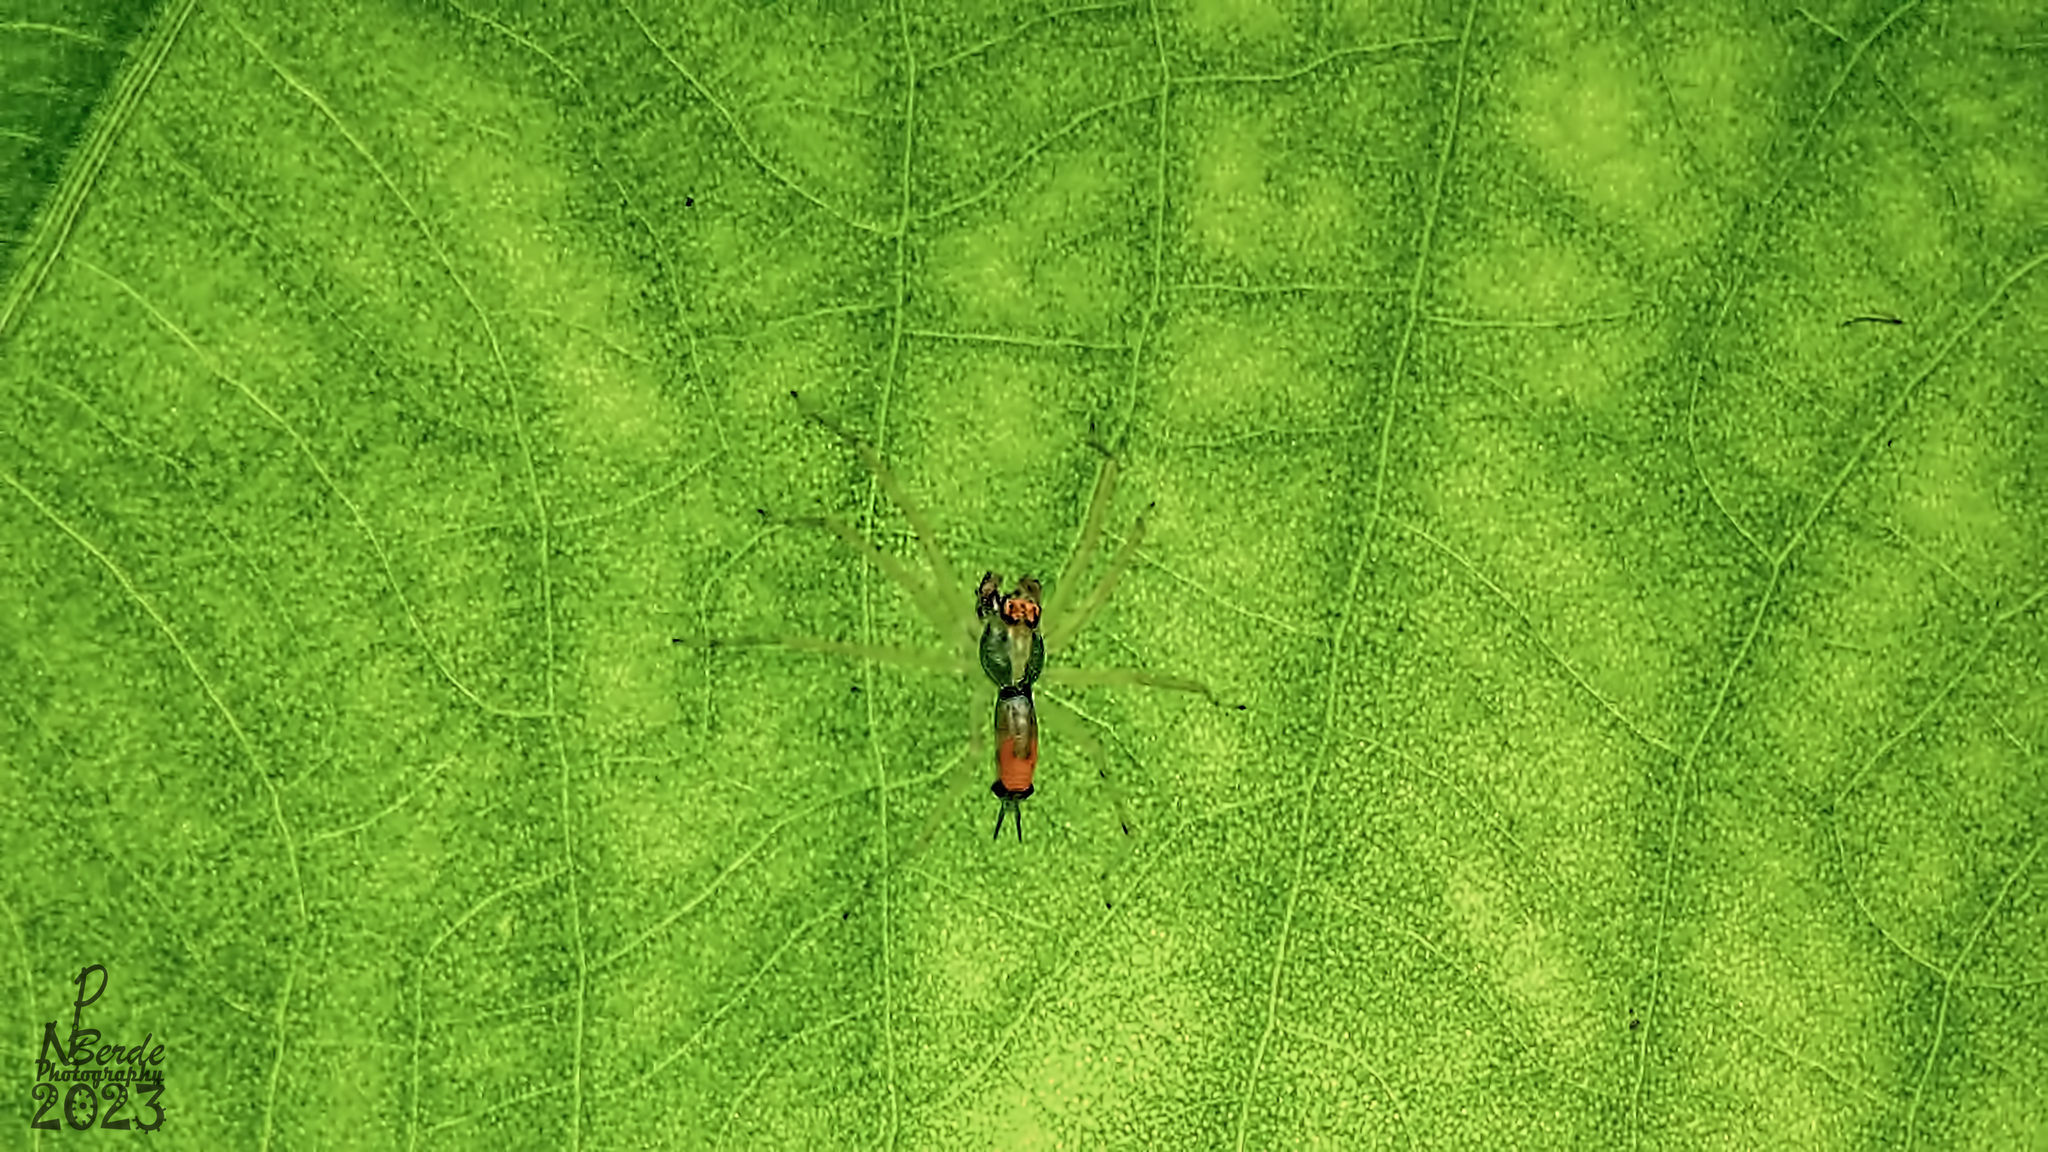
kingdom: Animalia
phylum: Arthropoda
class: Arachnida
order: Araneae
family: Salticidae
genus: Asemonea
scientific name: Asemonea tenuipes
